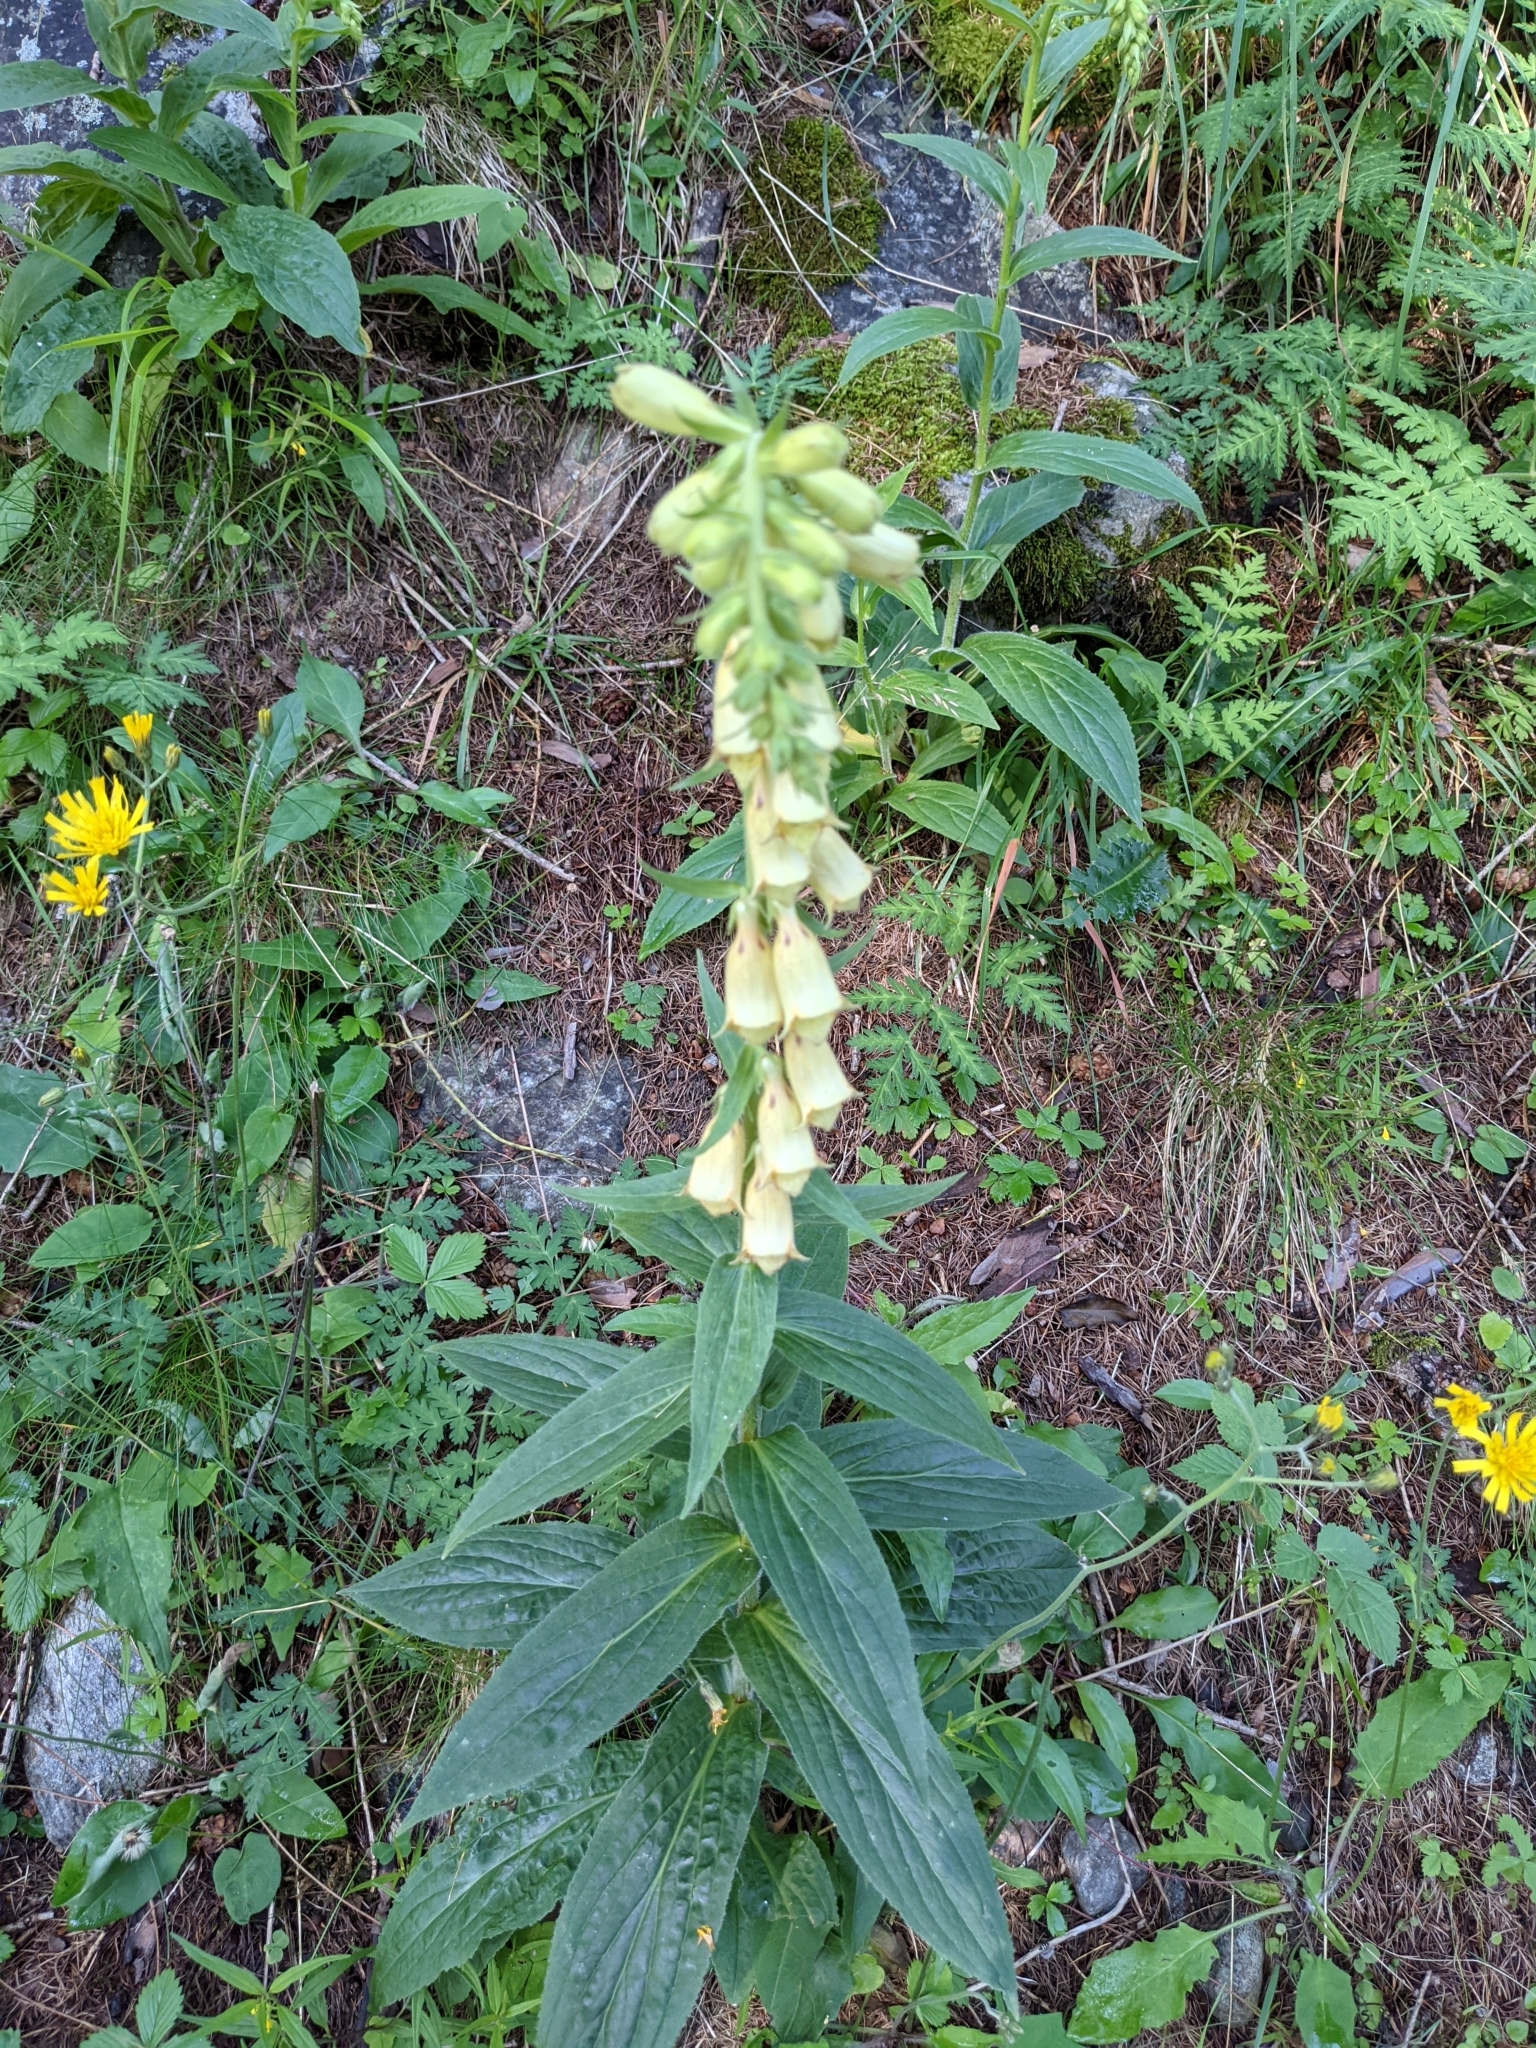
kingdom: Plantae
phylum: Tracheophyta
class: Magnoliopsida
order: Lamiales
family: Plantaginaceae
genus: Digitalis
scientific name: Digitalis grandiflora
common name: Yellow foxglove
